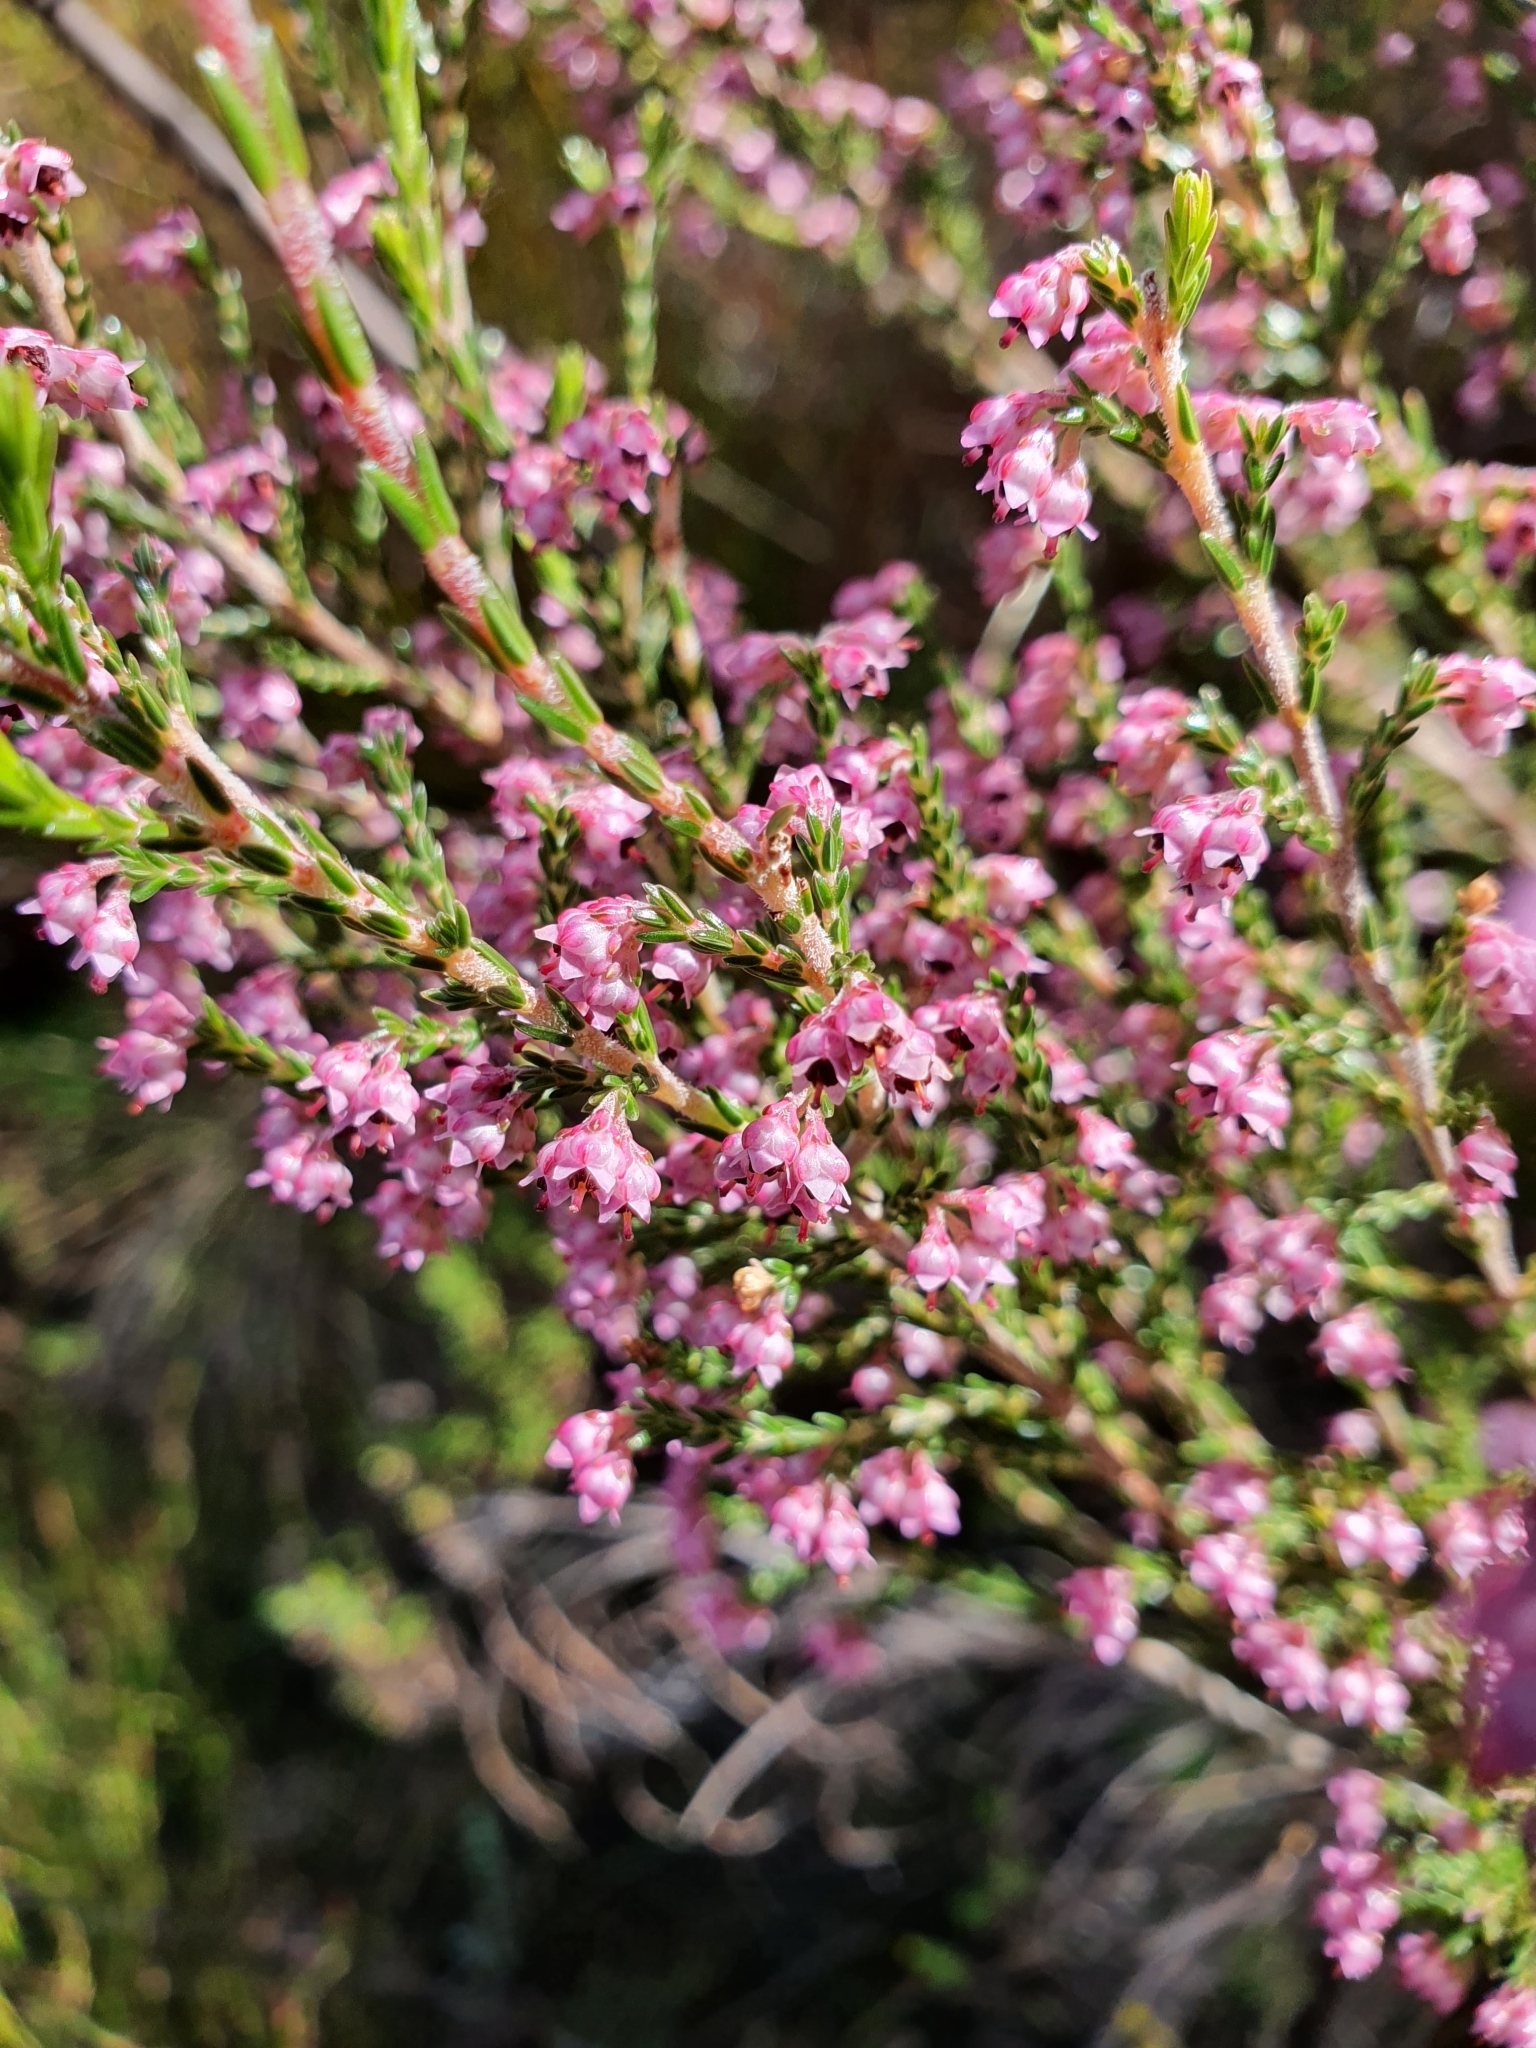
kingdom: Plantae
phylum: Tracheophyta
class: Magnoliopsida
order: Ericales
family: Ericaceae
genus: Erica
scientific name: Erica lucida
